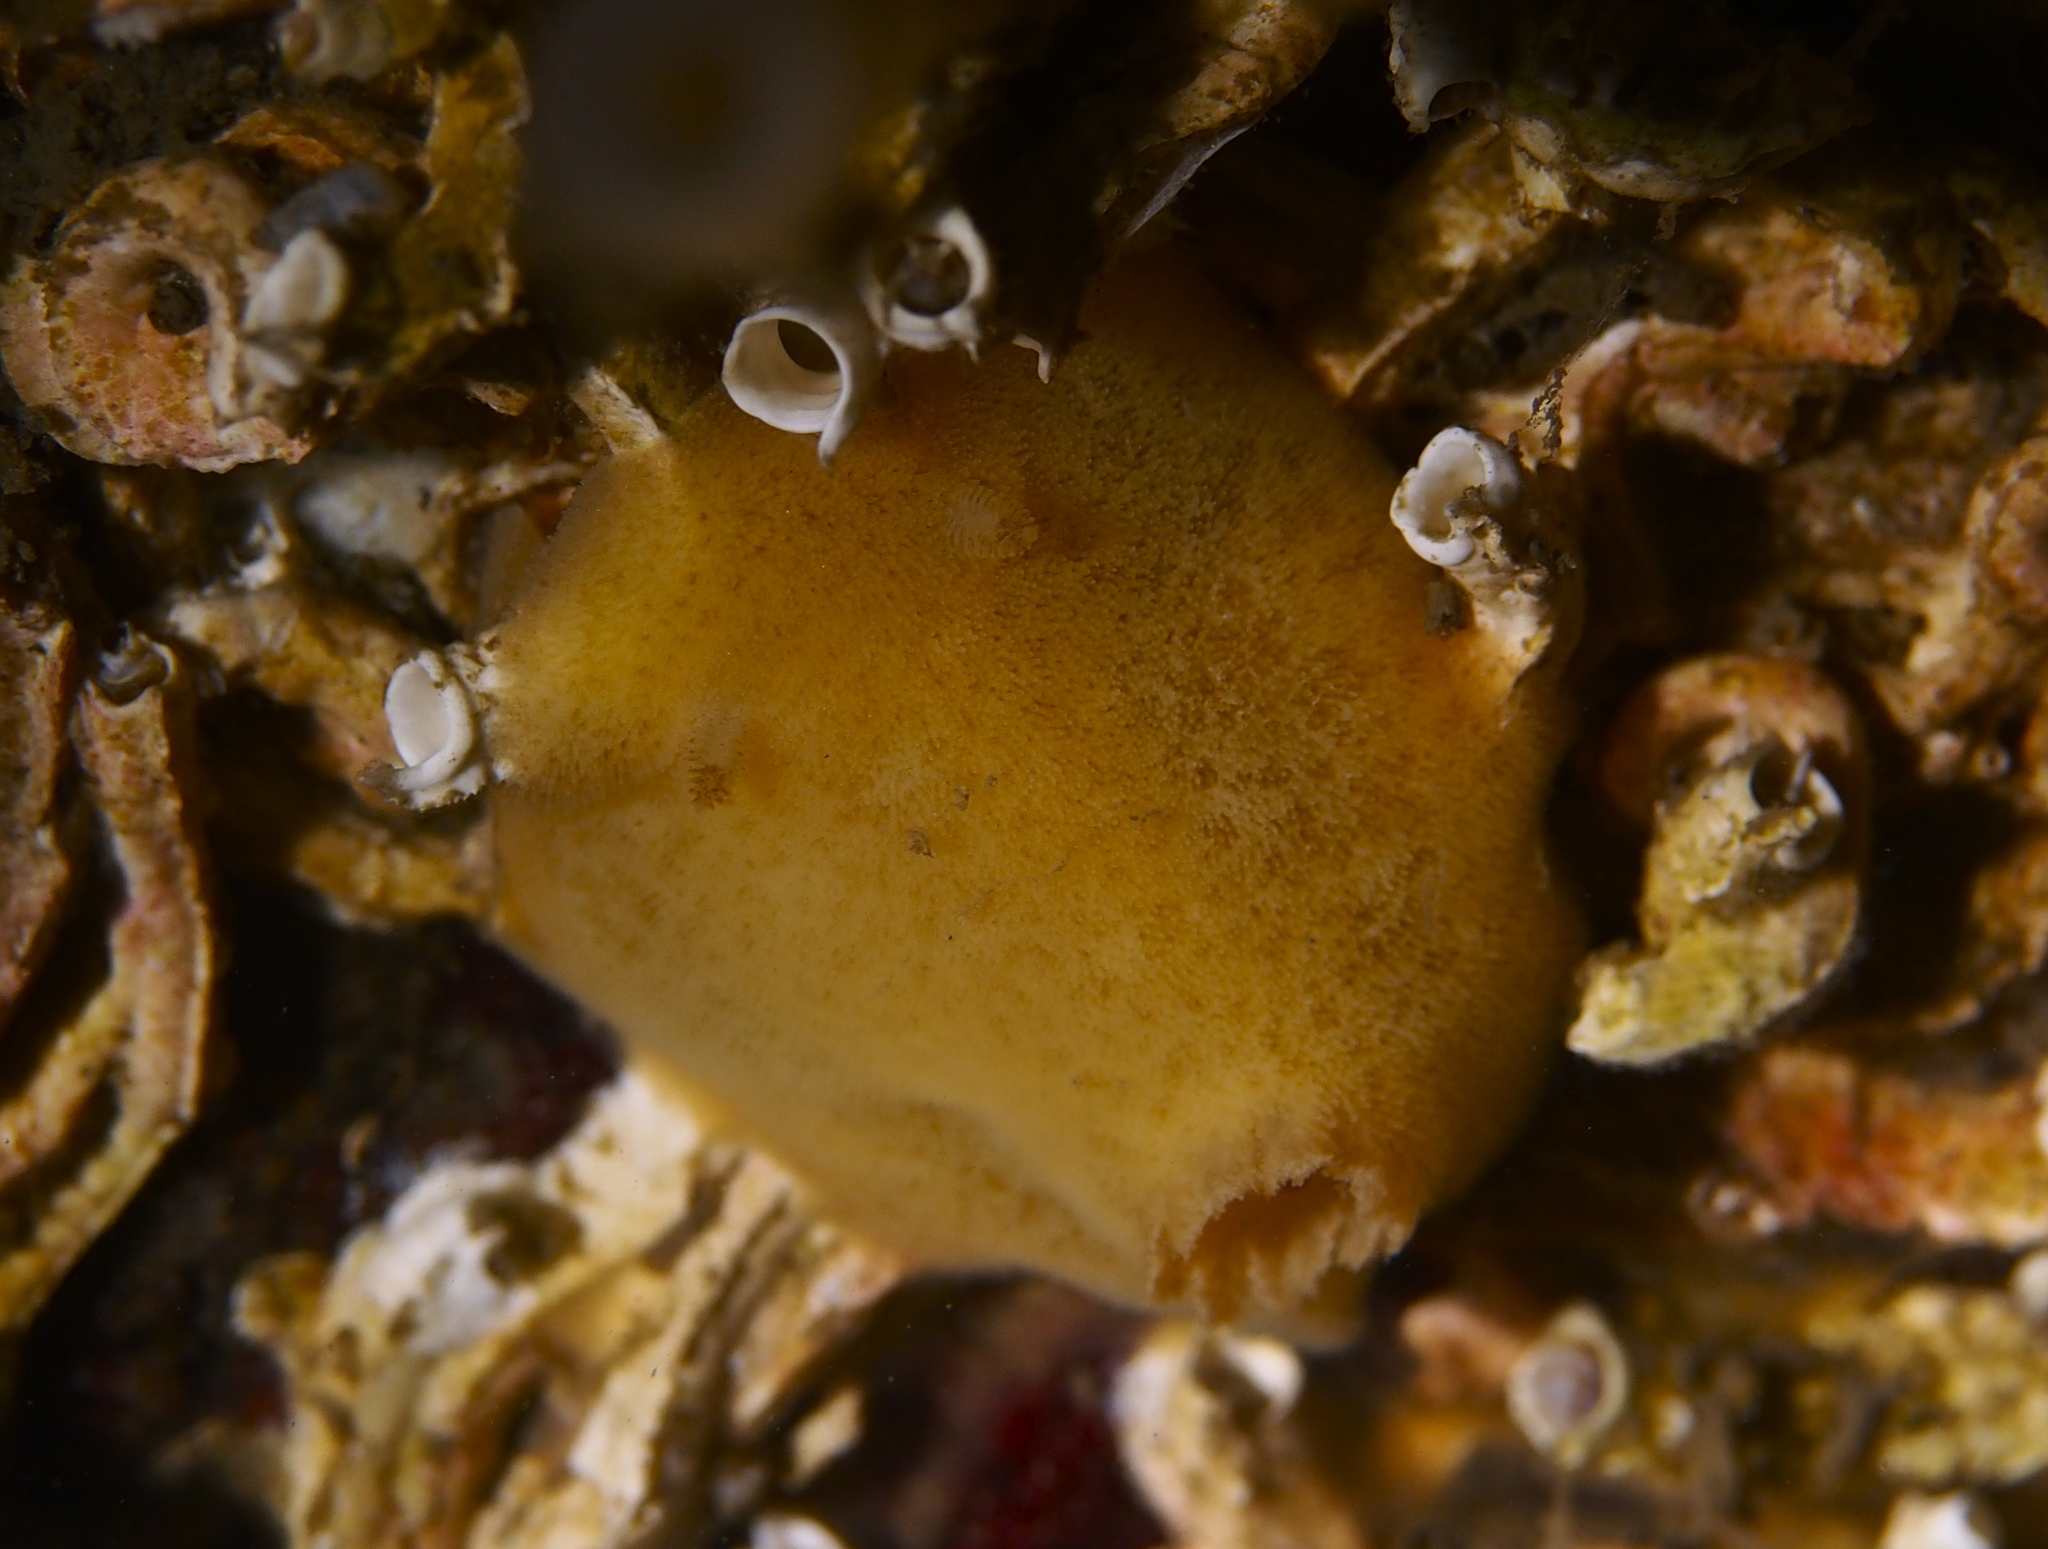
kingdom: Animalia
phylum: Mollusca
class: Gastropoda
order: Nudibranchia
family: Discodorididae
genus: Jorunna
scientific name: Jorunna tomentosa
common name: Grey sea slug
